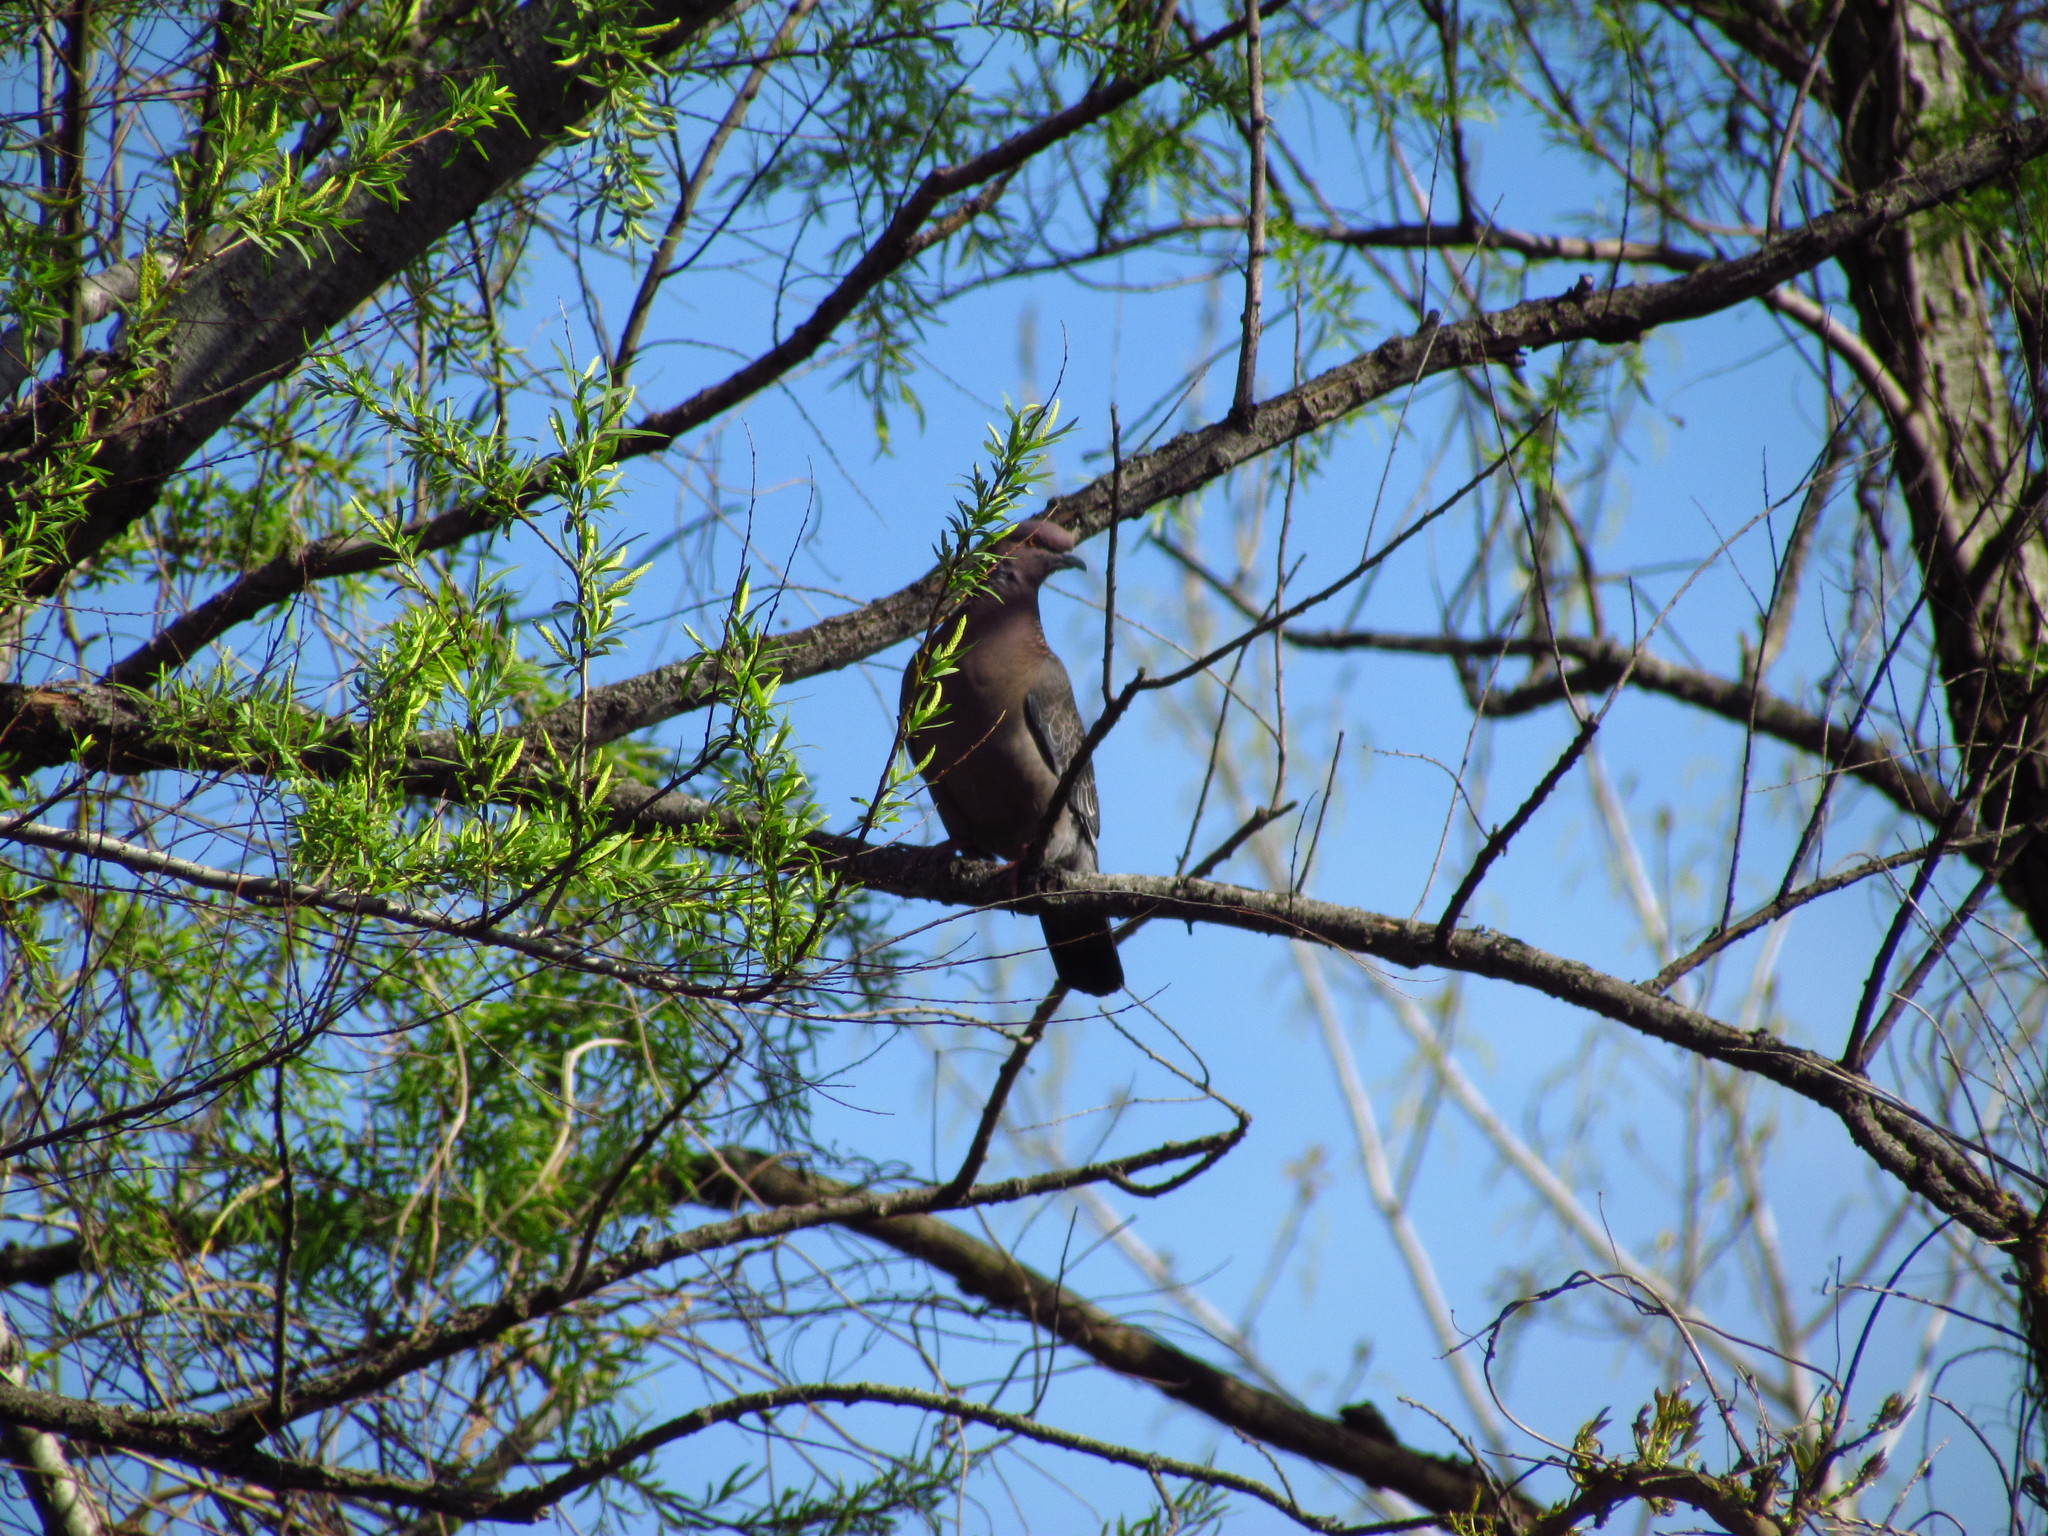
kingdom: Animalia
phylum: Chordata
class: Aves
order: Columbiformes
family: Columbidae
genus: Patagioenas
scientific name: Patagioenas picazuro
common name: Picazuro pigeon
